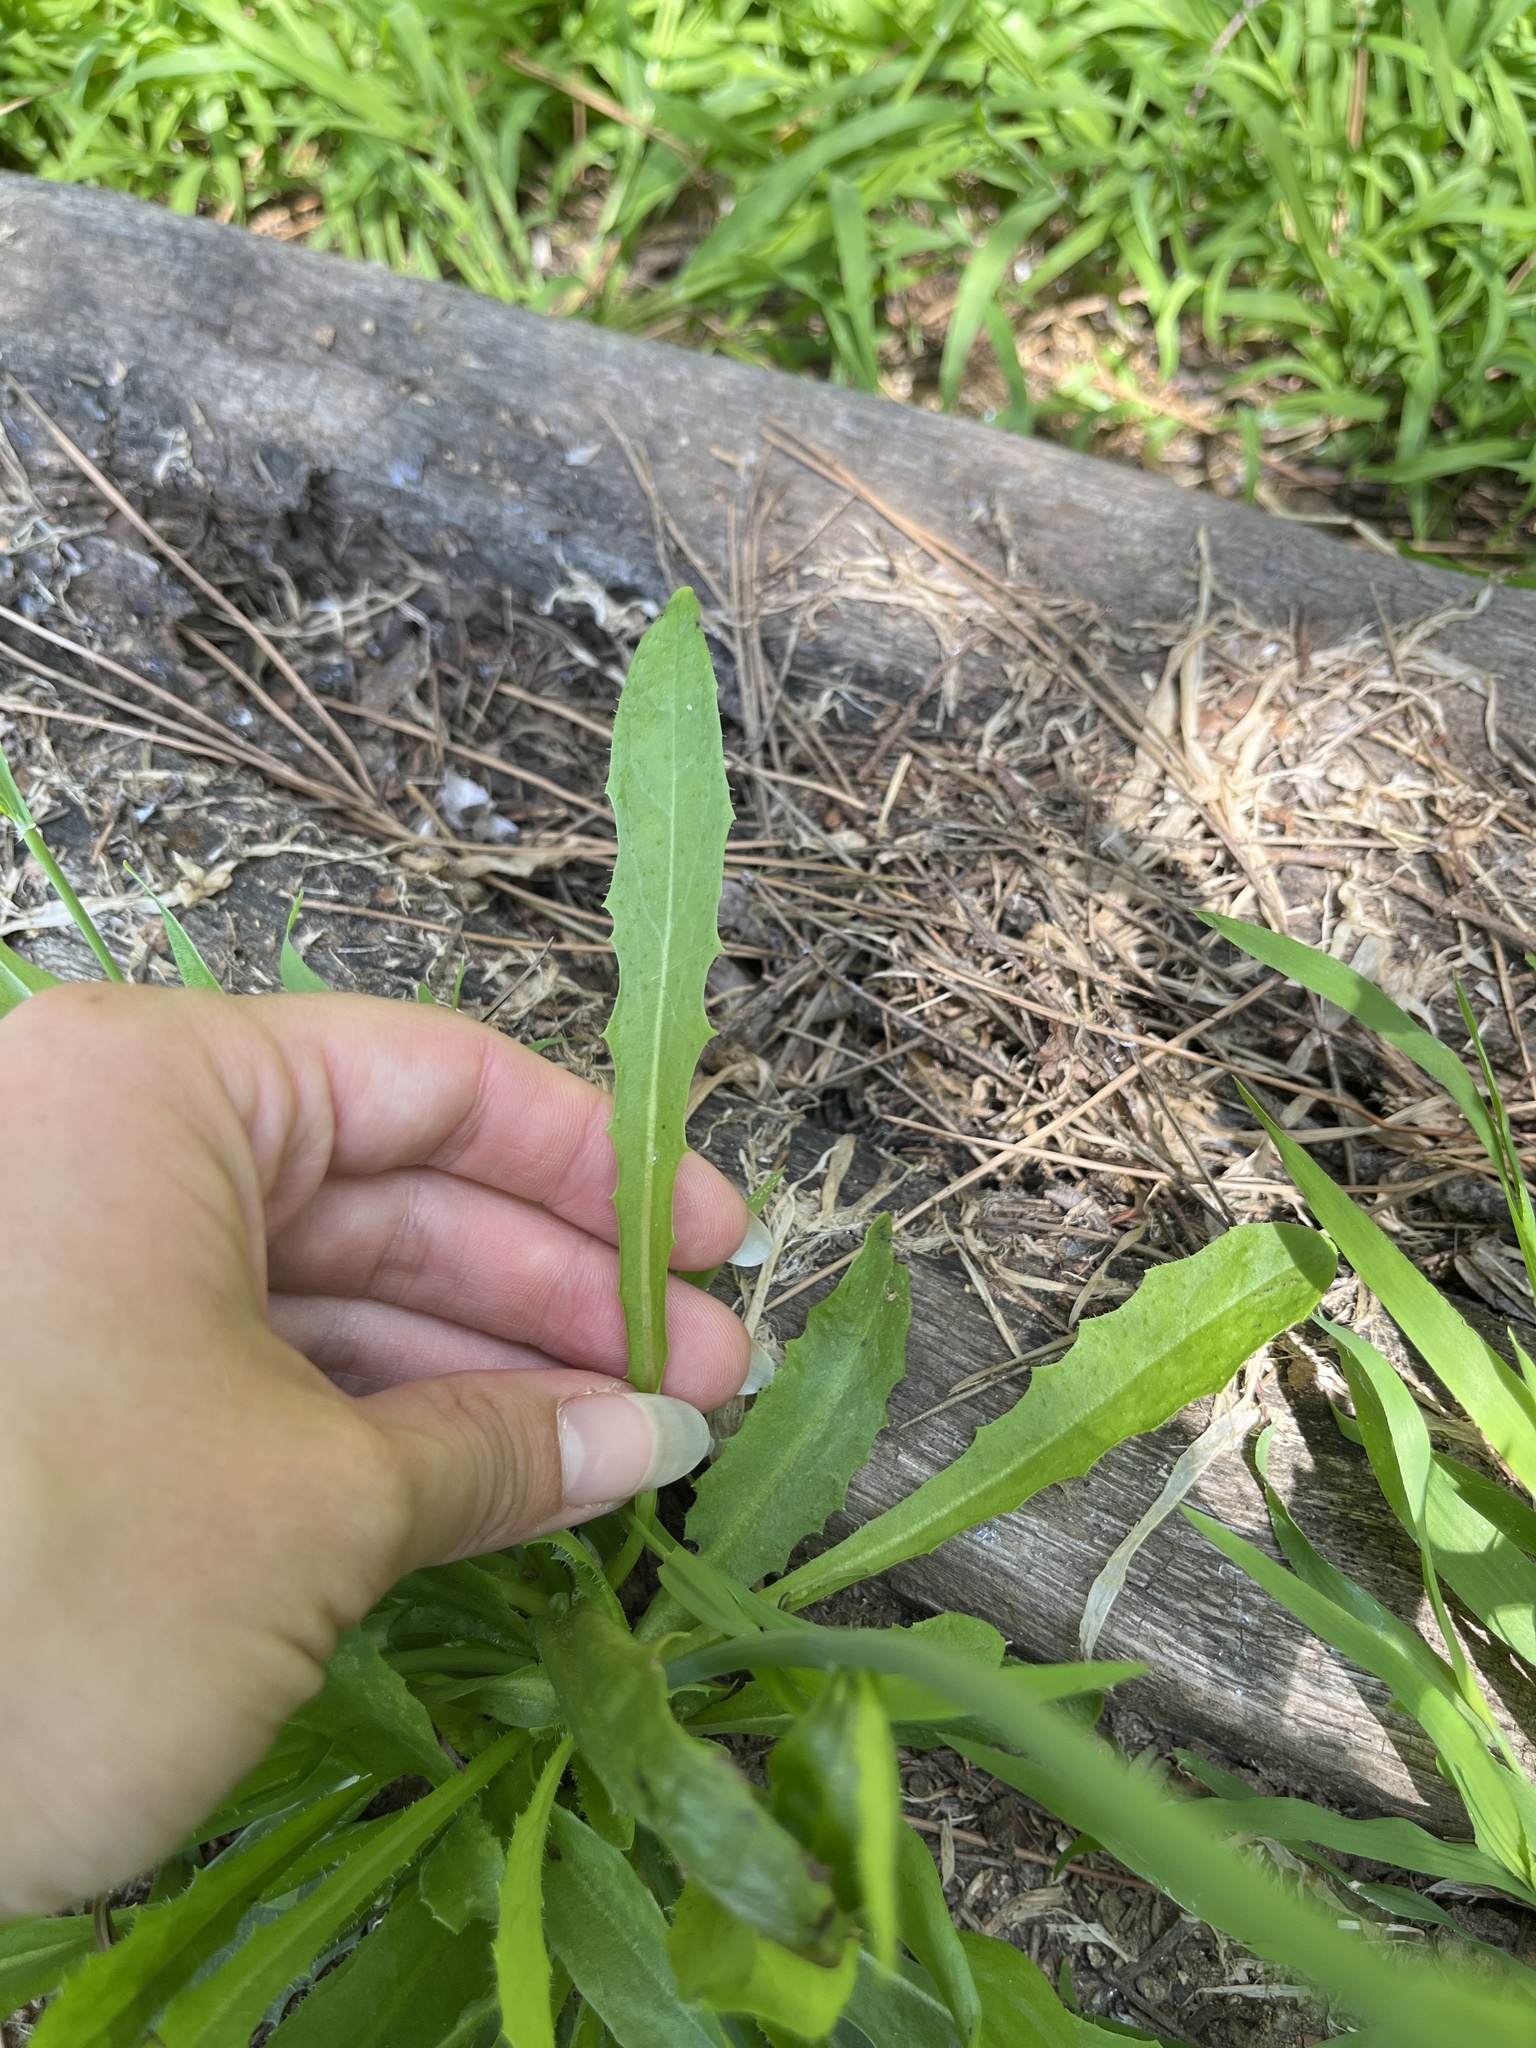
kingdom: Plantae
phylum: Tracheophyta
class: Magnoliopsida
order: Asterales
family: Asteraceae
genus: Hypochaeris
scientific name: Hypochaeris glabra
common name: Smooth catsear
